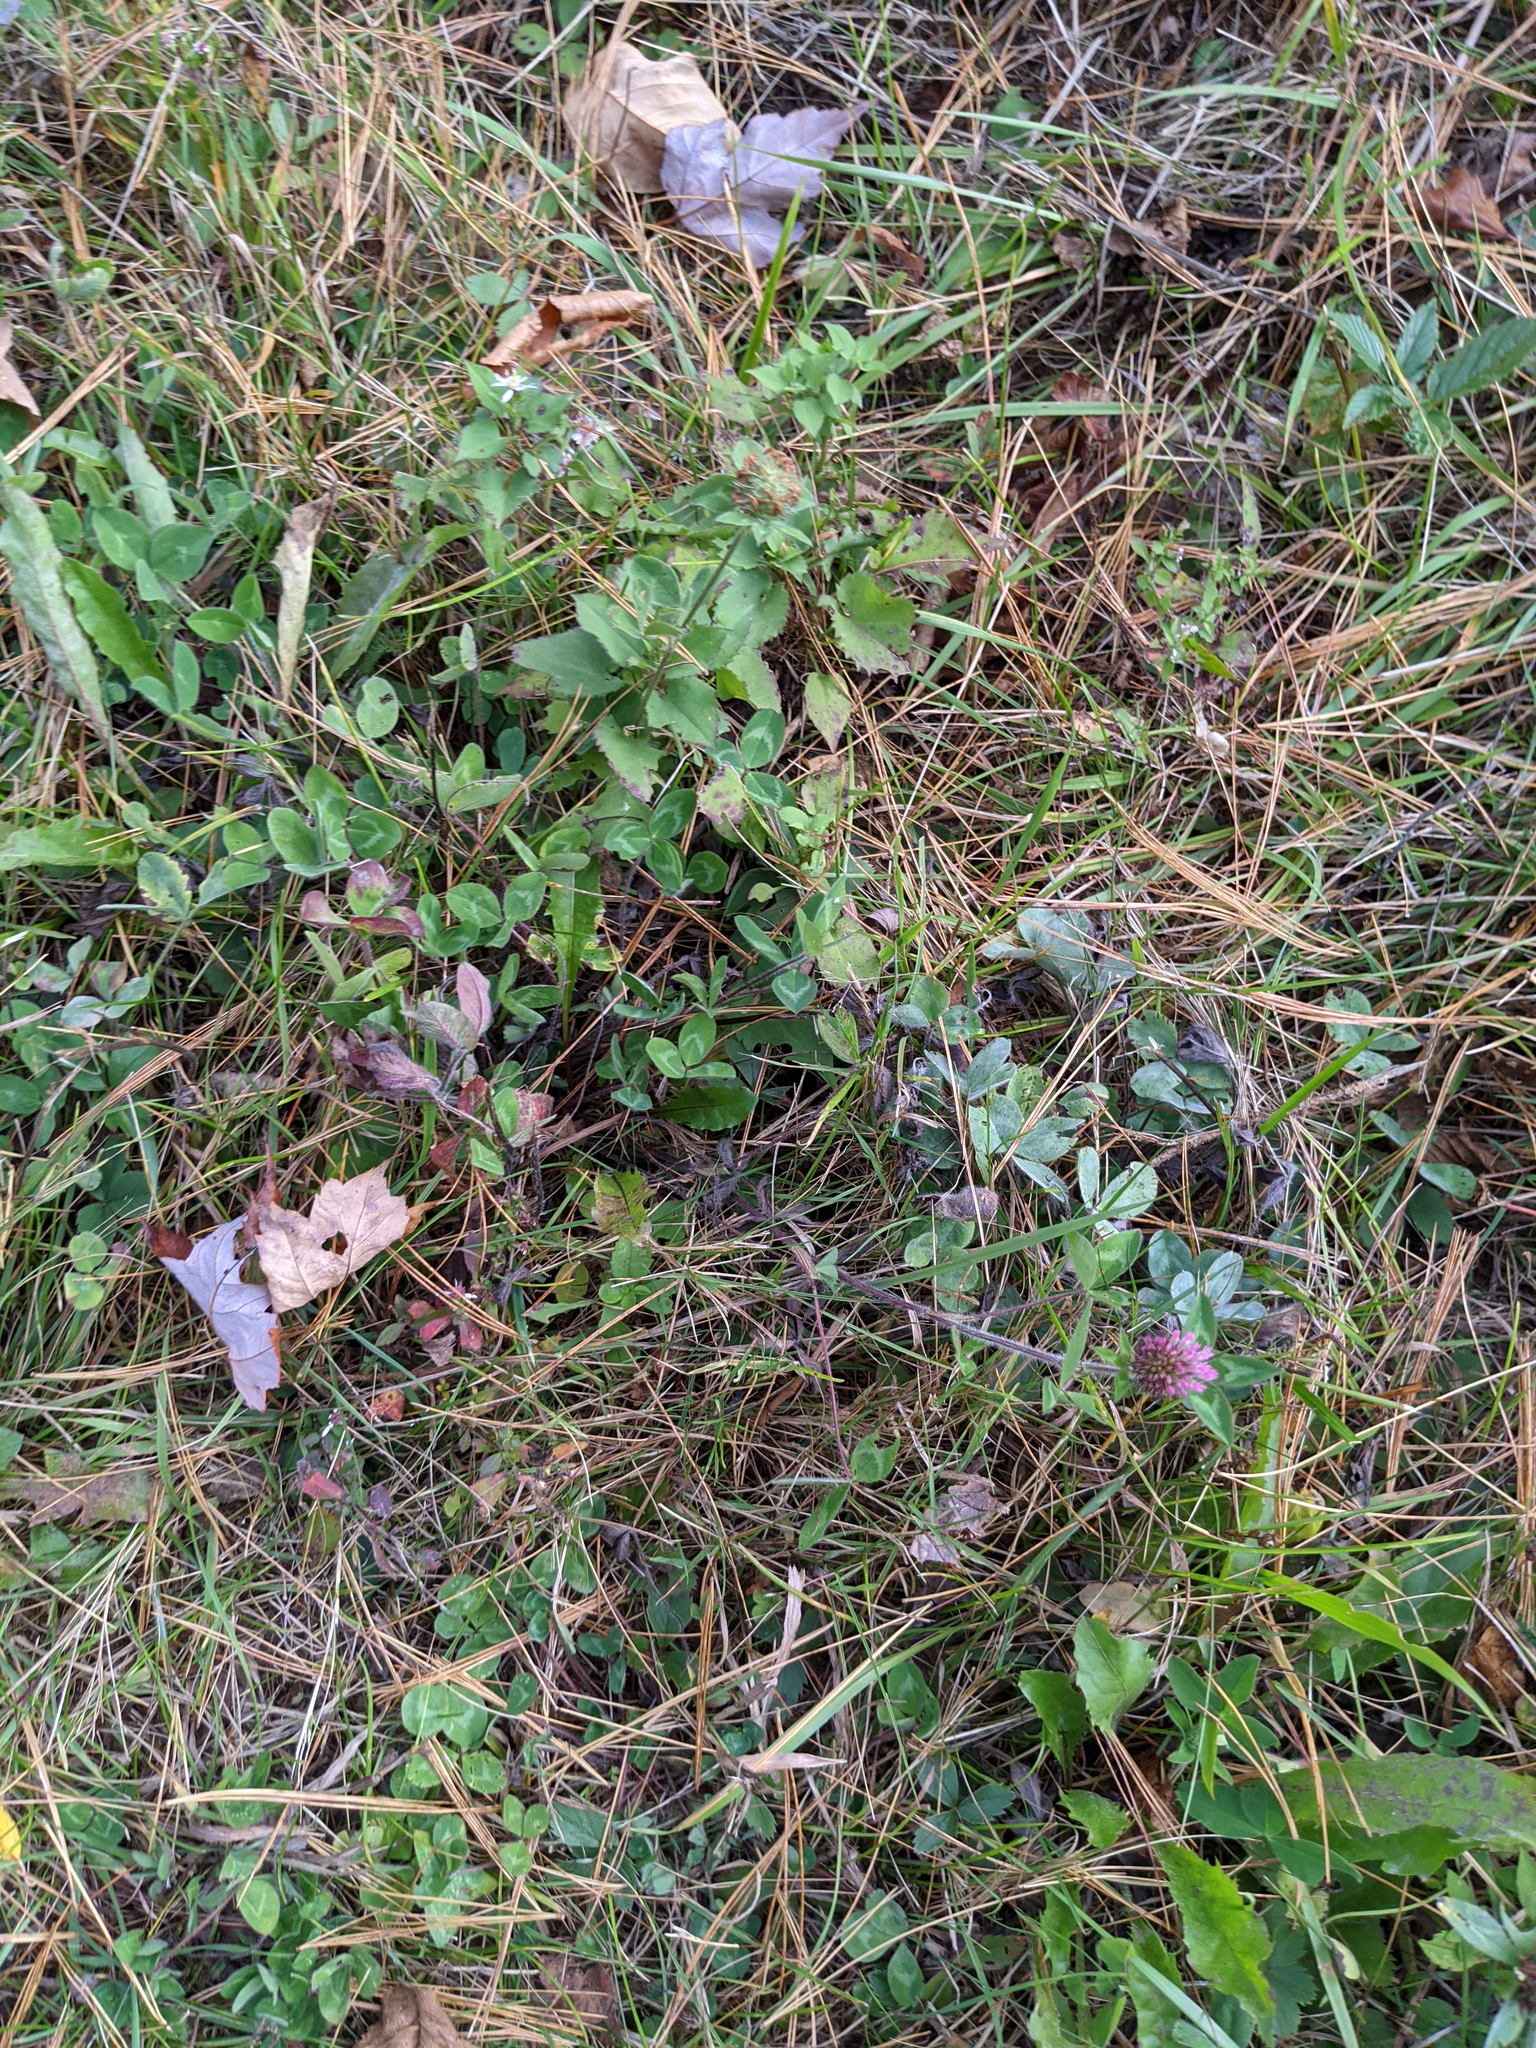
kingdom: Plantae
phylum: Tracheophyta
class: Magnoliopsida
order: Fabales
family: Fabaceae
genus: Trifolium
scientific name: Trifolium pratense
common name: Red clover
